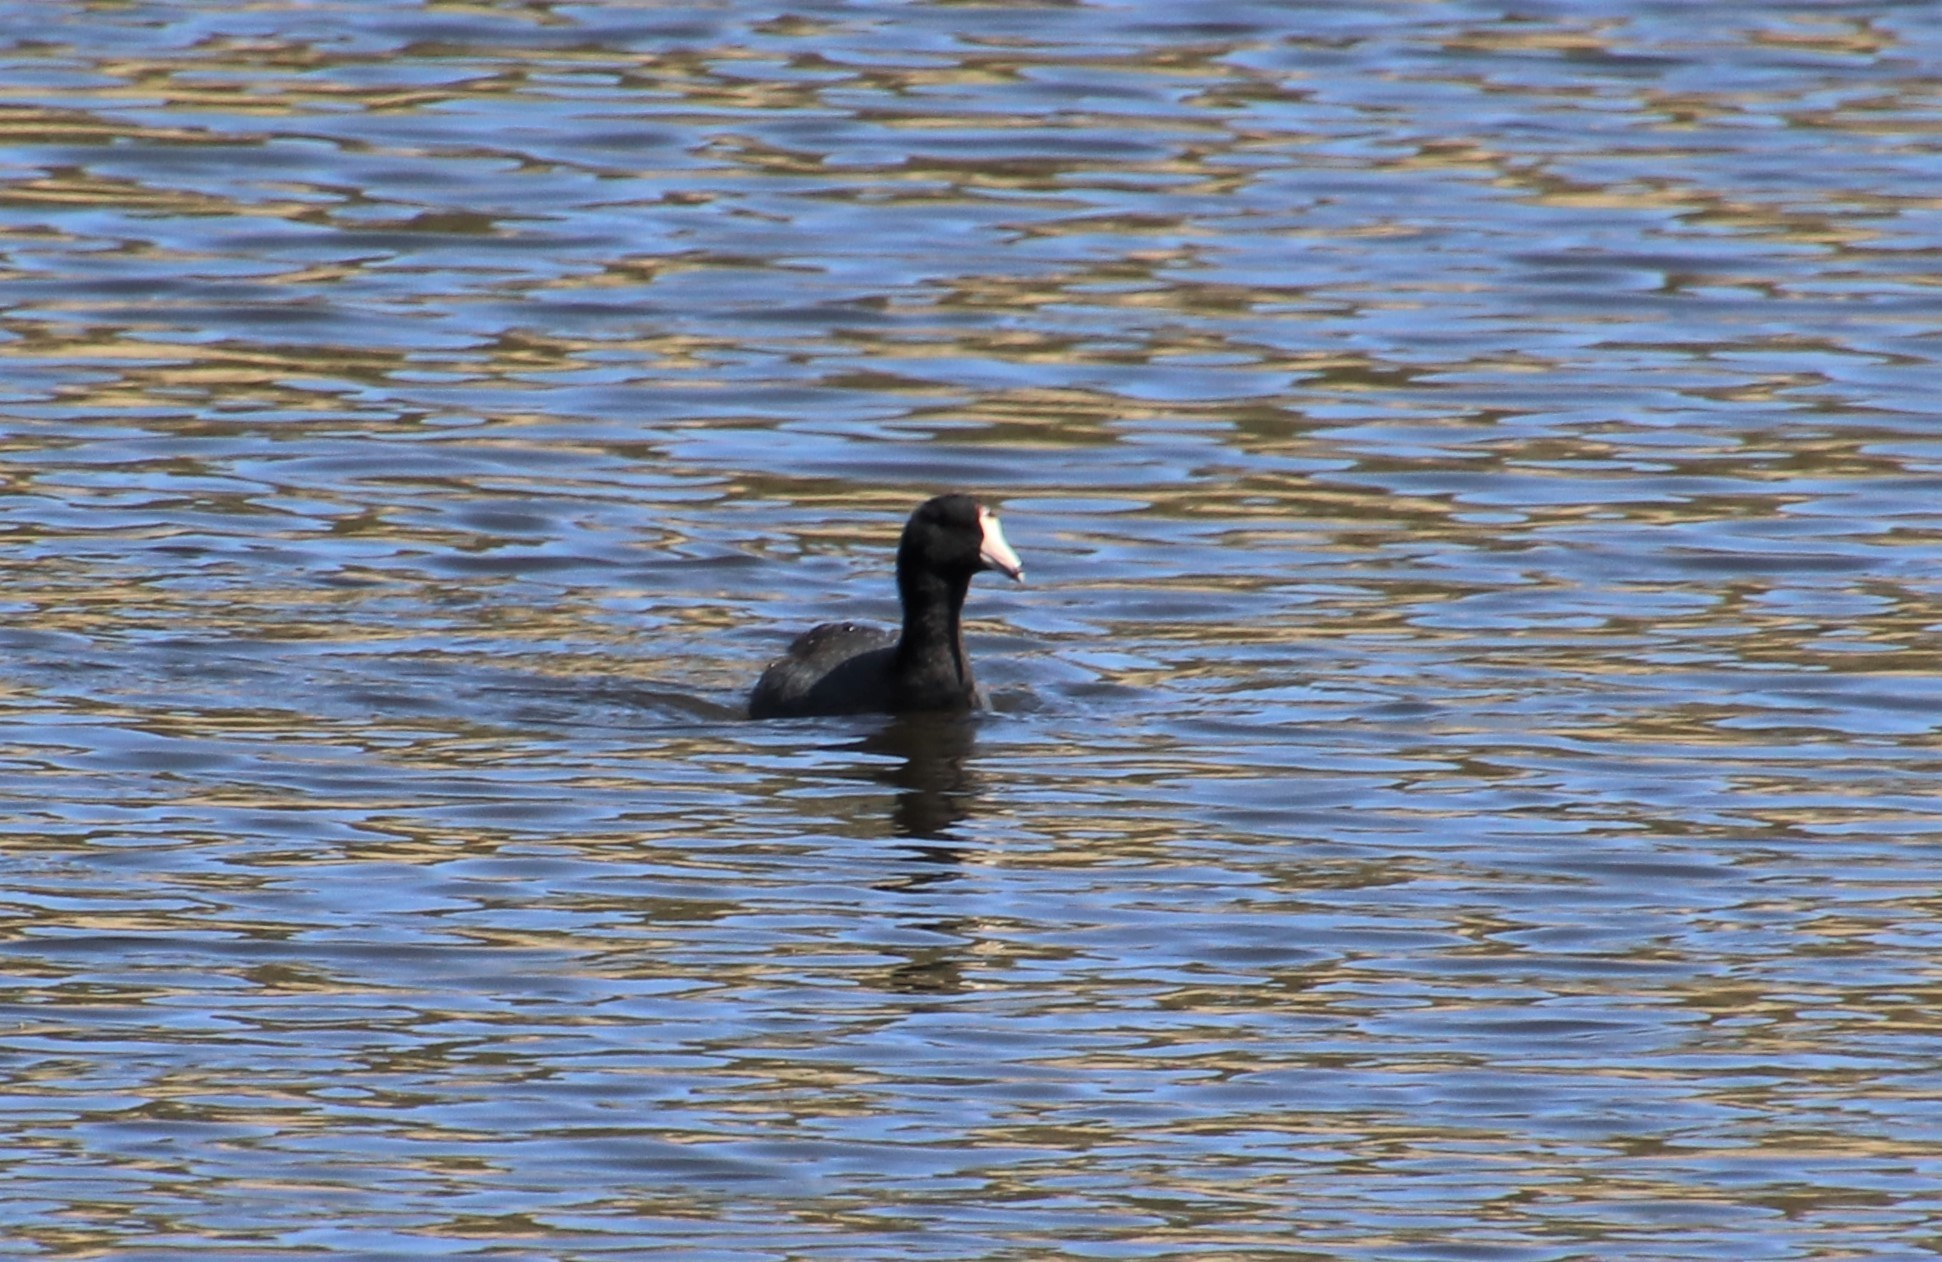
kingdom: Animalia
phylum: Chordata
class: Aves
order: Gruiformes
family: Rallidae
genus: Fulica
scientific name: Fulica americana
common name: American coot
